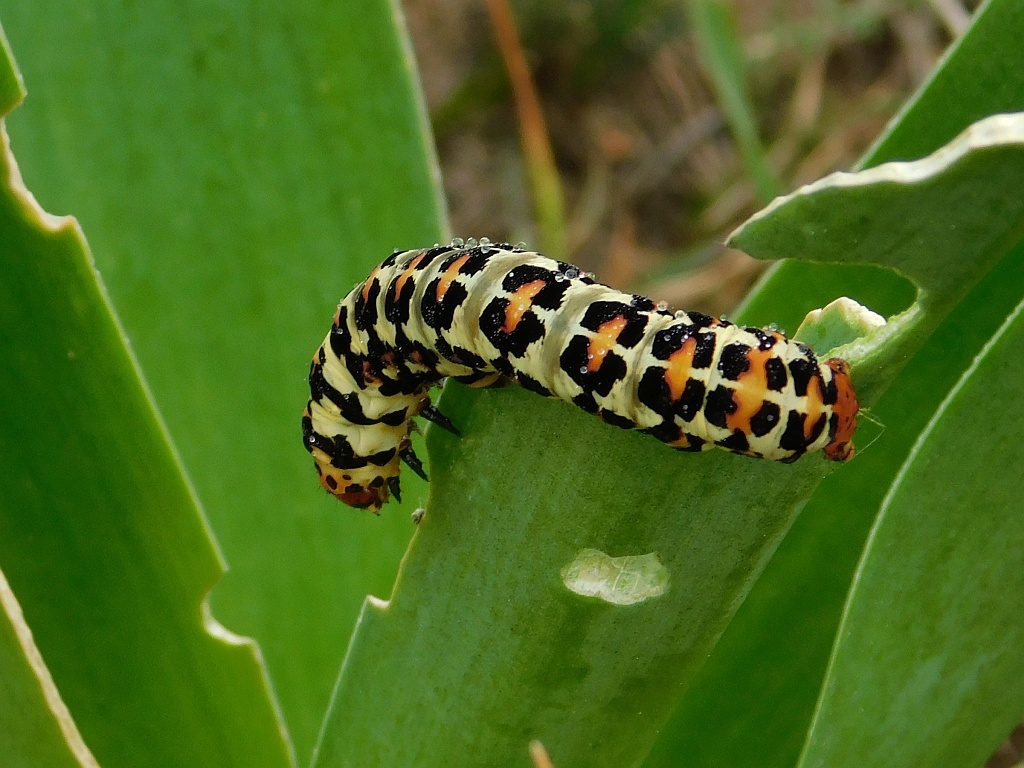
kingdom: Animalia
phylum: Arthropoda
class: Insecta
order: Lepidoptera
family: Noctuidae
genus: Diaphone
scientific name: Diaphone eumela
